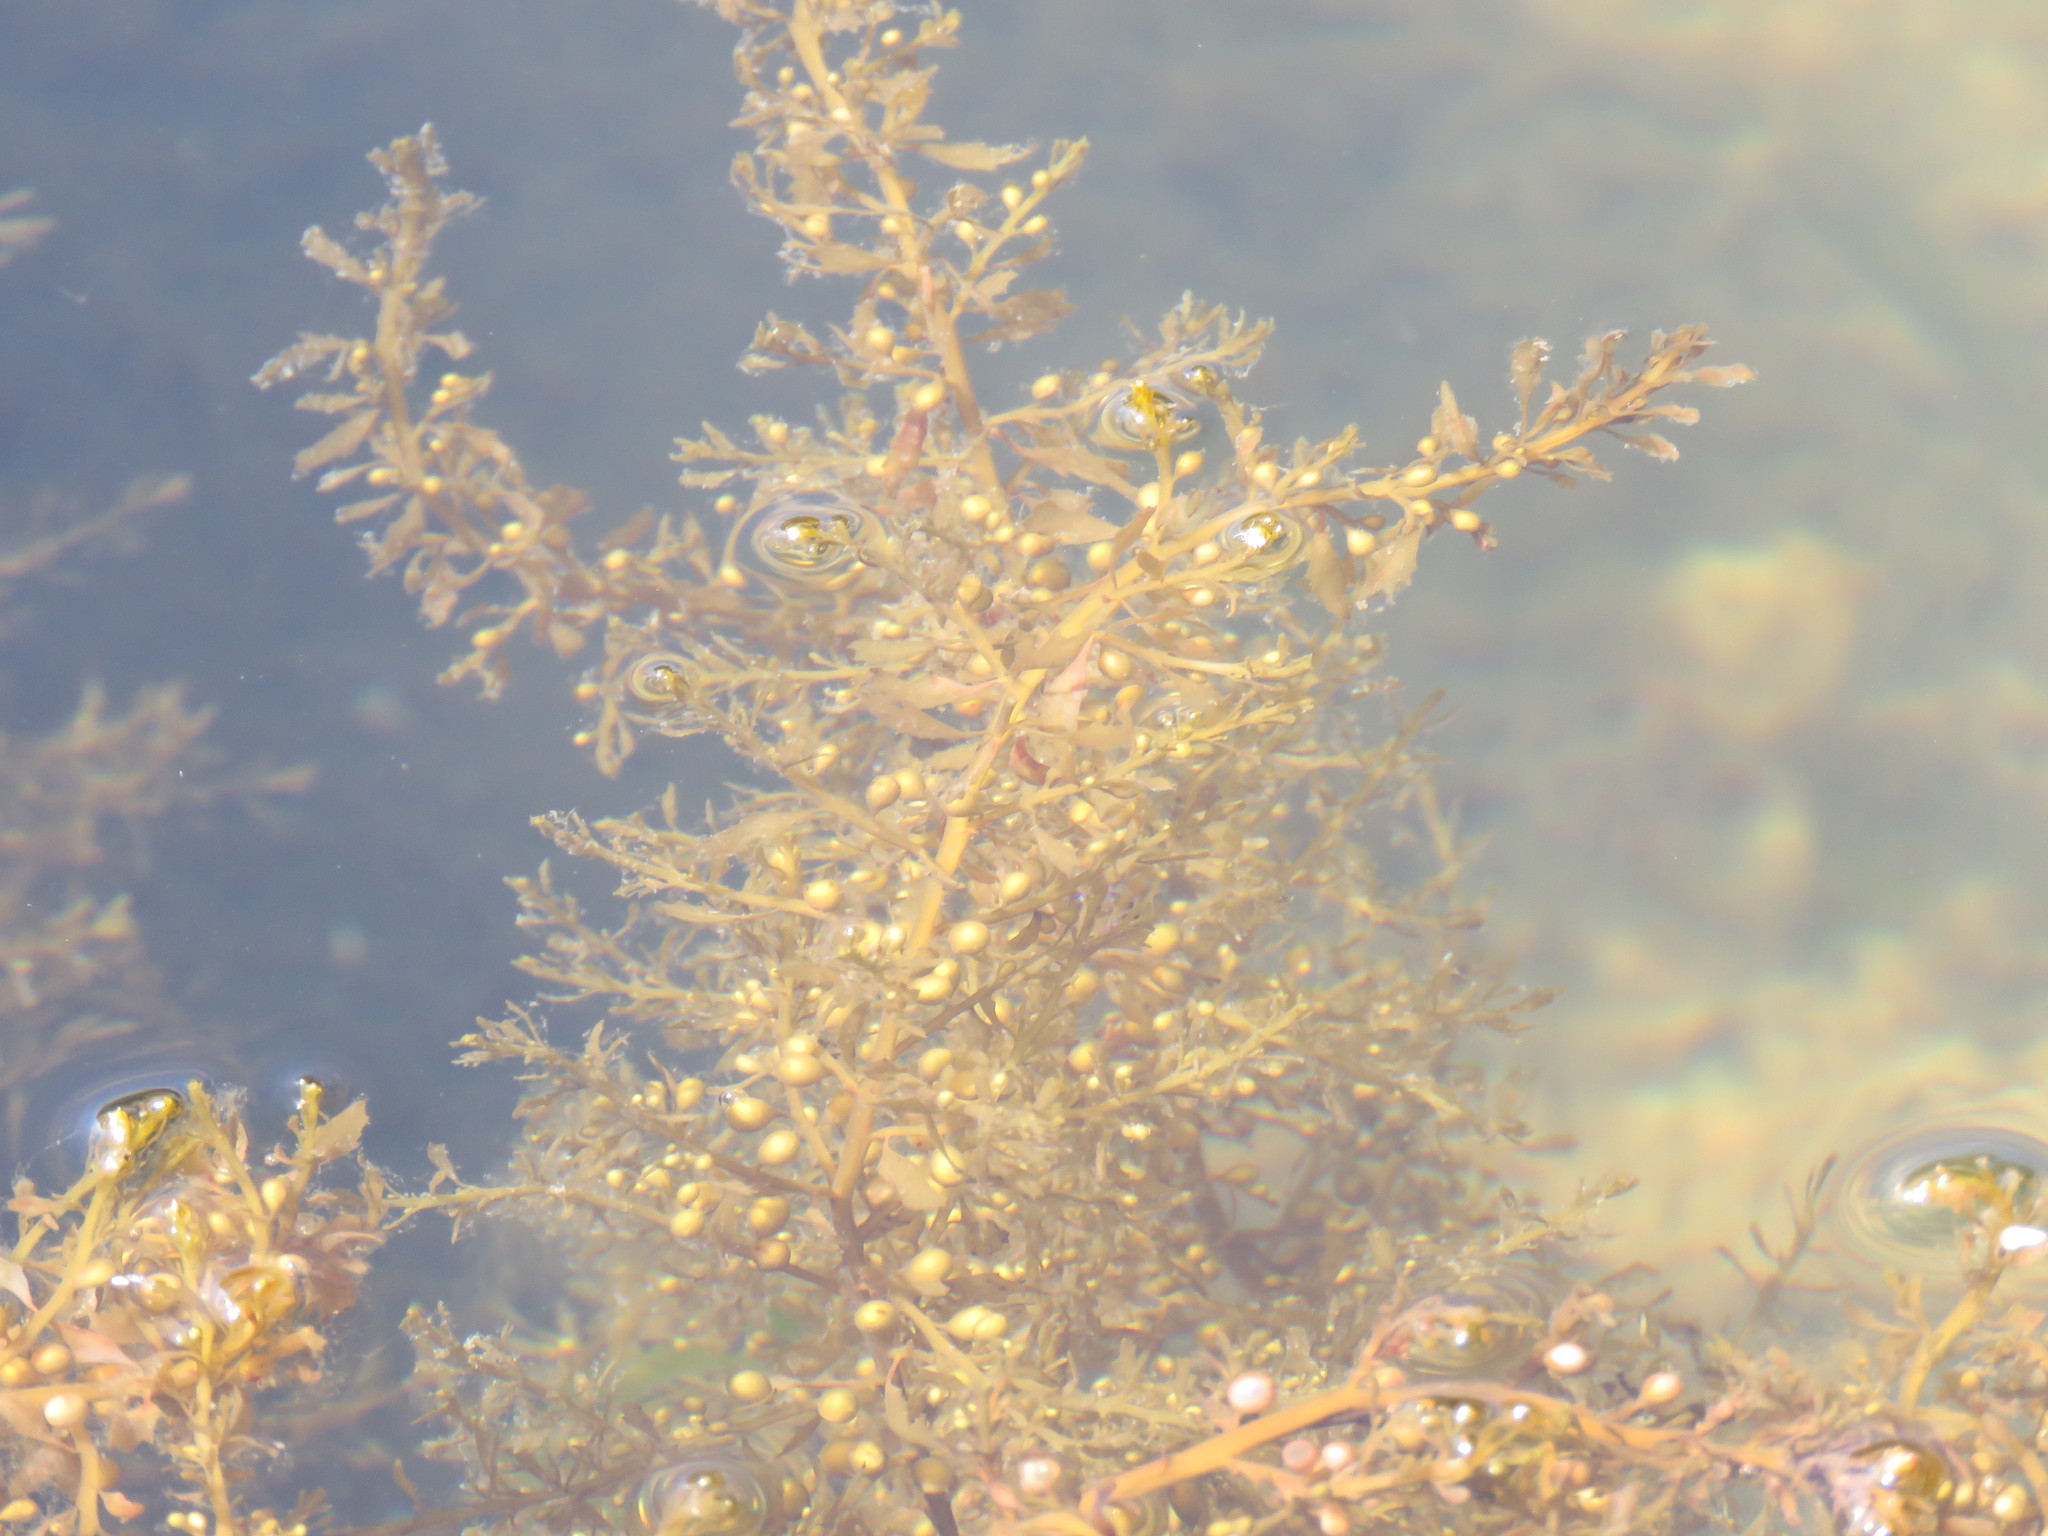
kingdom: Chromista
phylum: Ochrophyta
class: Phaeophyceae
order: Fucales
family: Sargassaceae
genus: Sargassum
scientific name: Sargassum muticum
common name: Japweed
